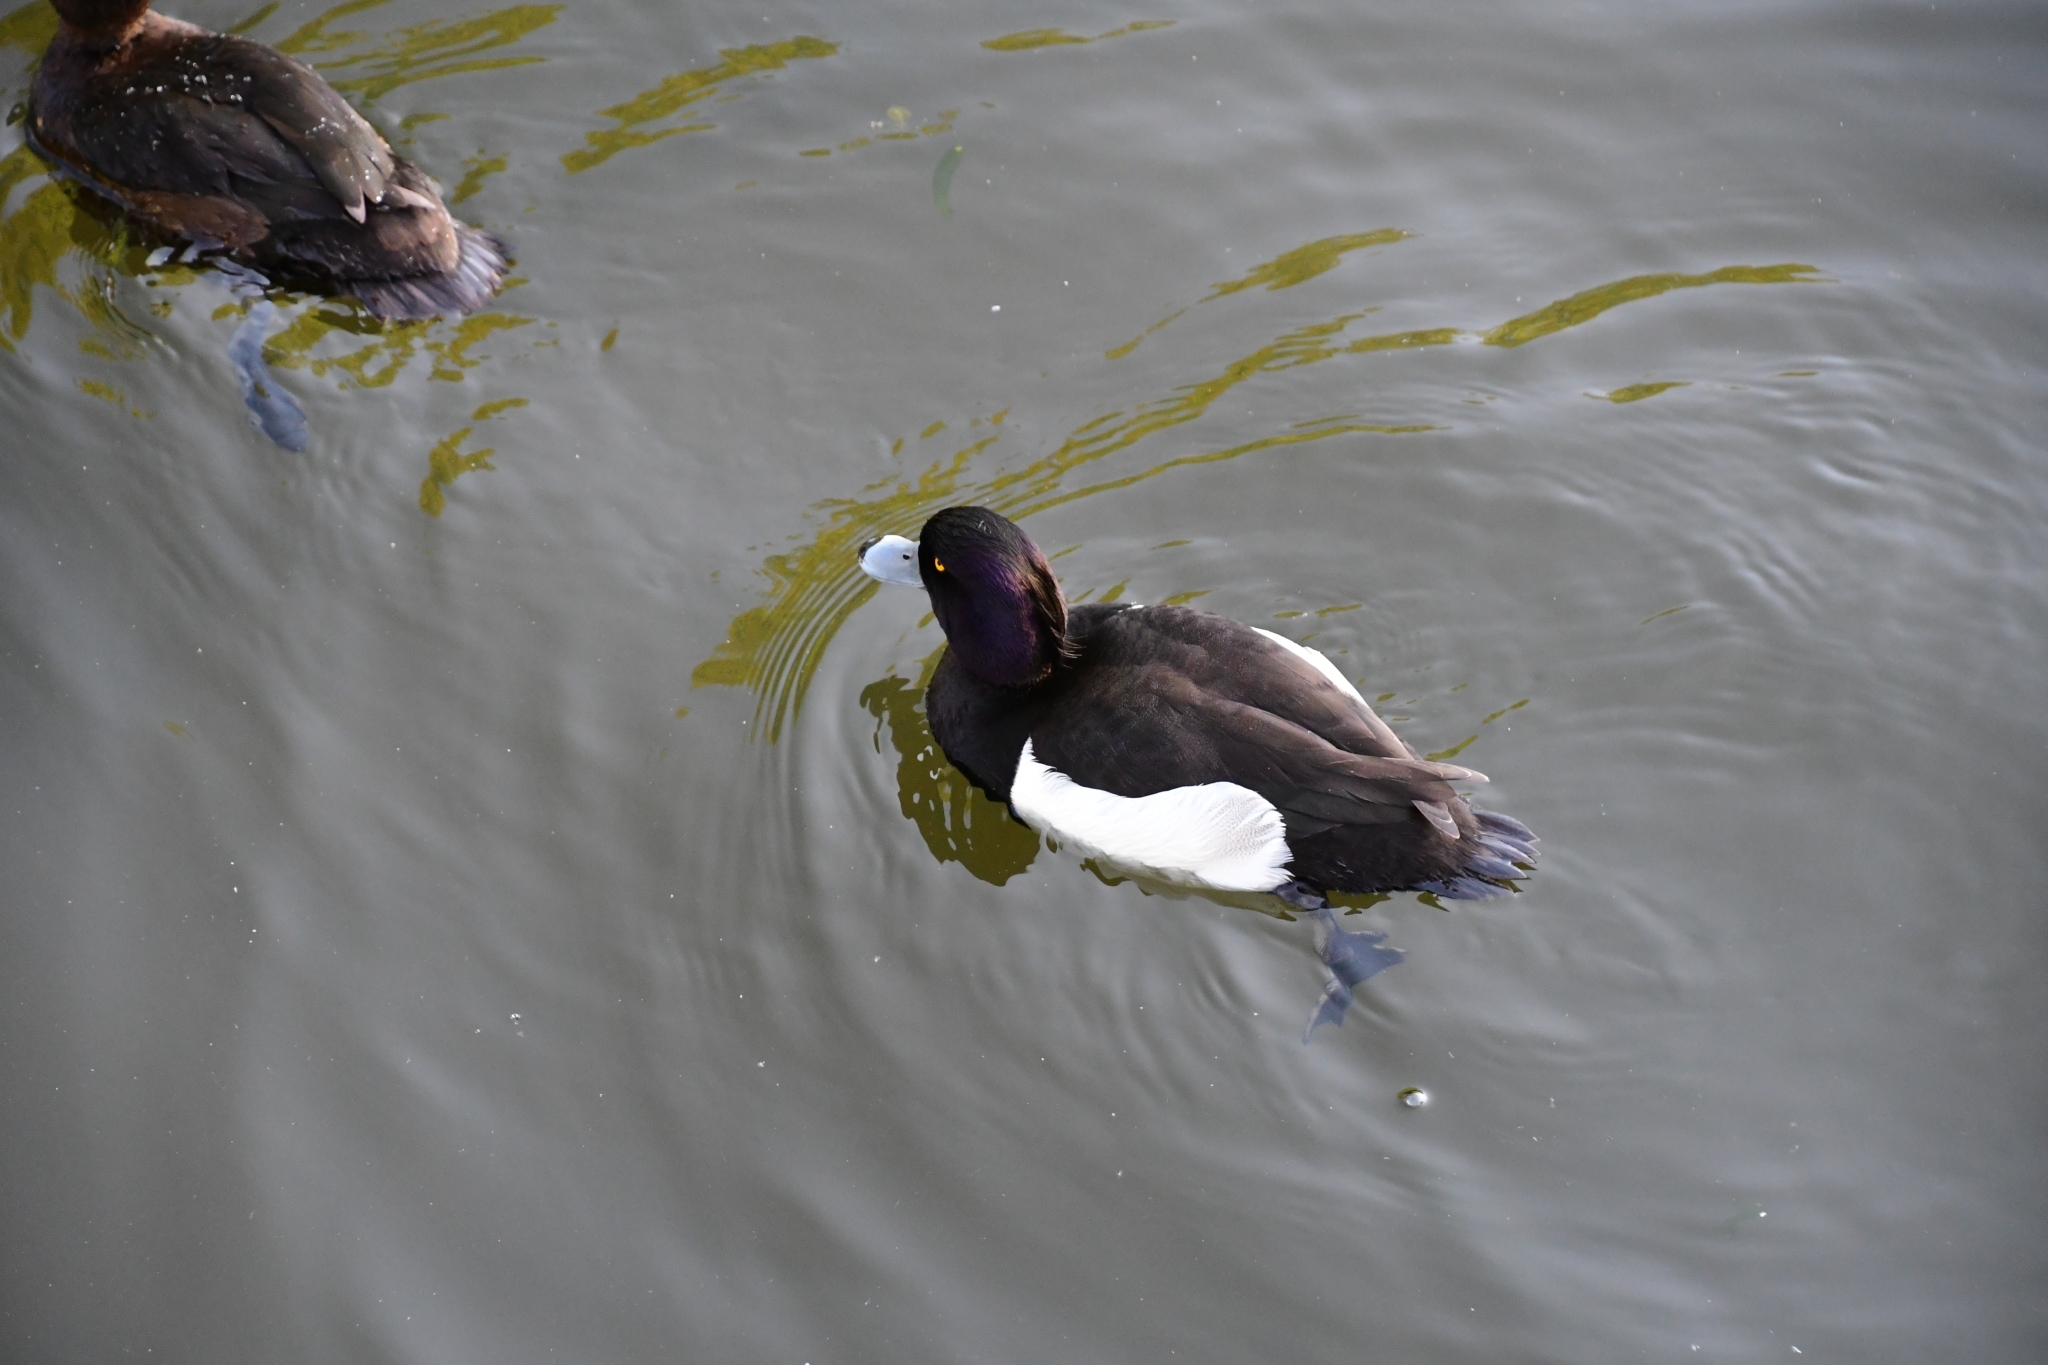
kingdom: Animalia
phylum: Chordata
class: Aves
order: Anseriformes
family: Anatidae
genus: Aythya
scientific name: Aythya fuligula
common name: Tufted duck
